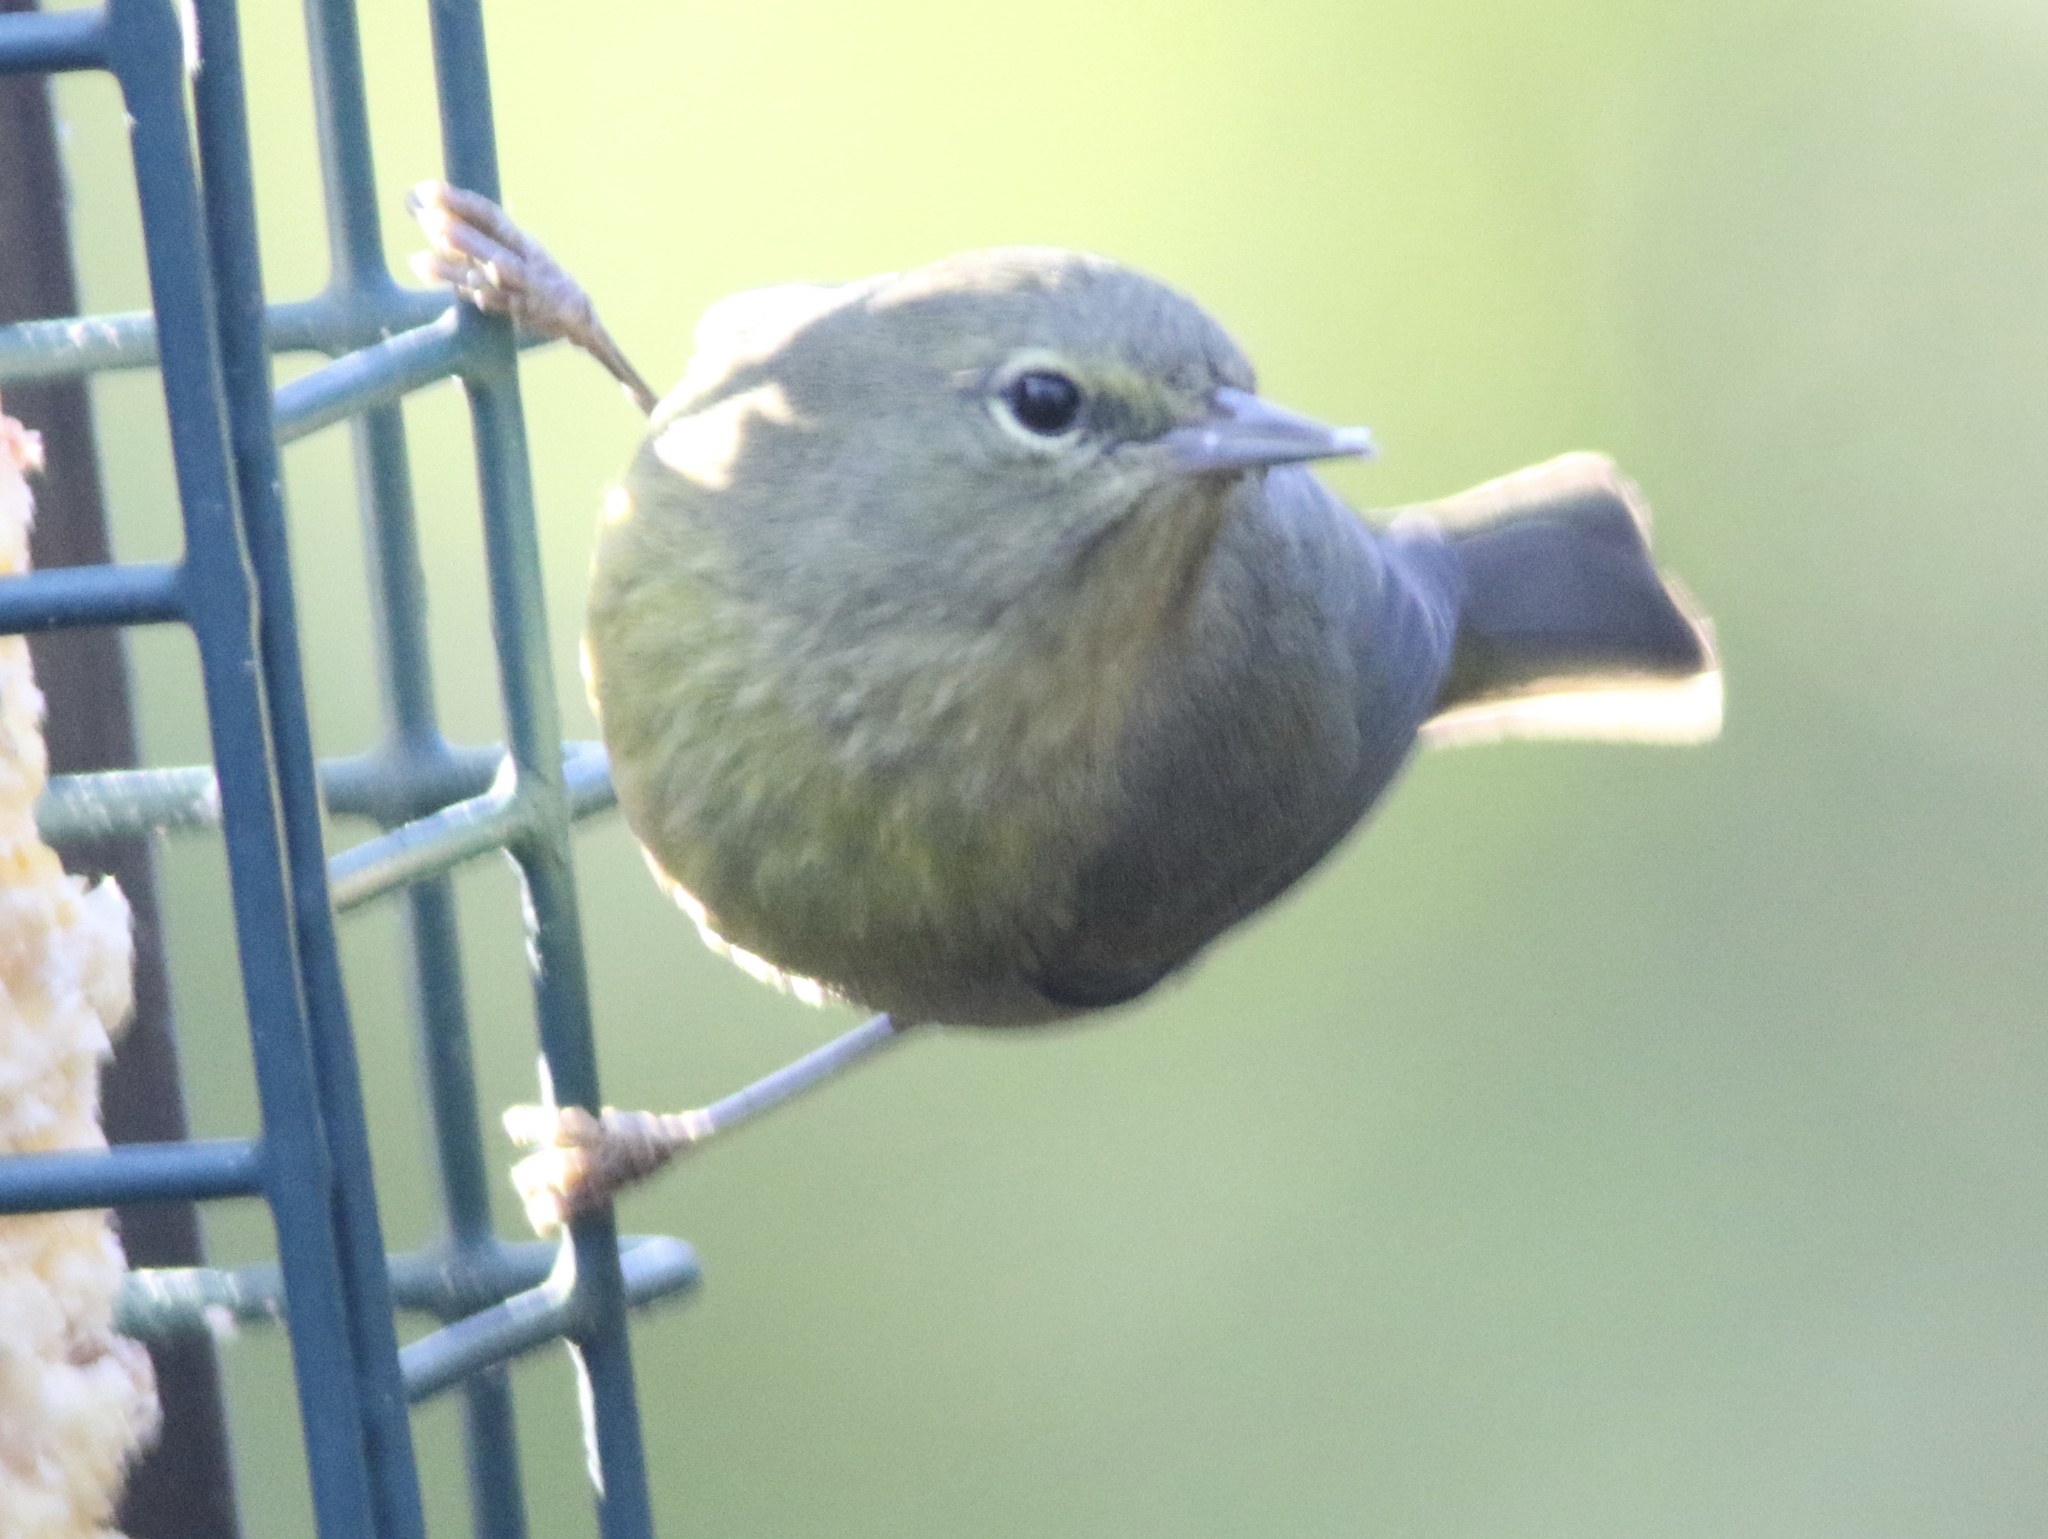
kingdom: Animalia
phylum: Chordata
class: Aves
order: Passeriformes
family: Parulidae
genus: Leiothlypis
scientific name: Leiothlypis celata
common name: Orange-crowned warbler
